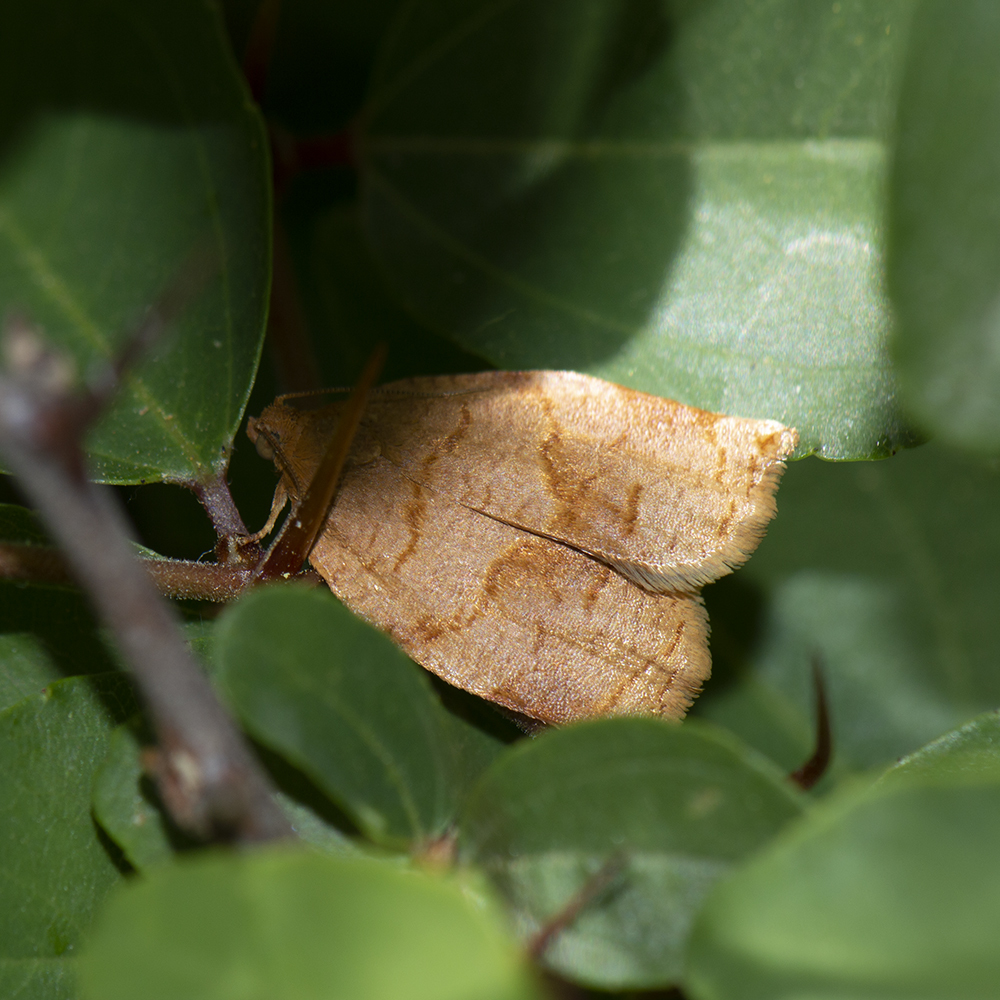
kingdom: Animalia
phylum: Arthropoda
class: Insecta
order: Lepidoptera
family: Tortricidae
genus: Archips
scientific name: Archips rosana
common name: Rose tortrix
